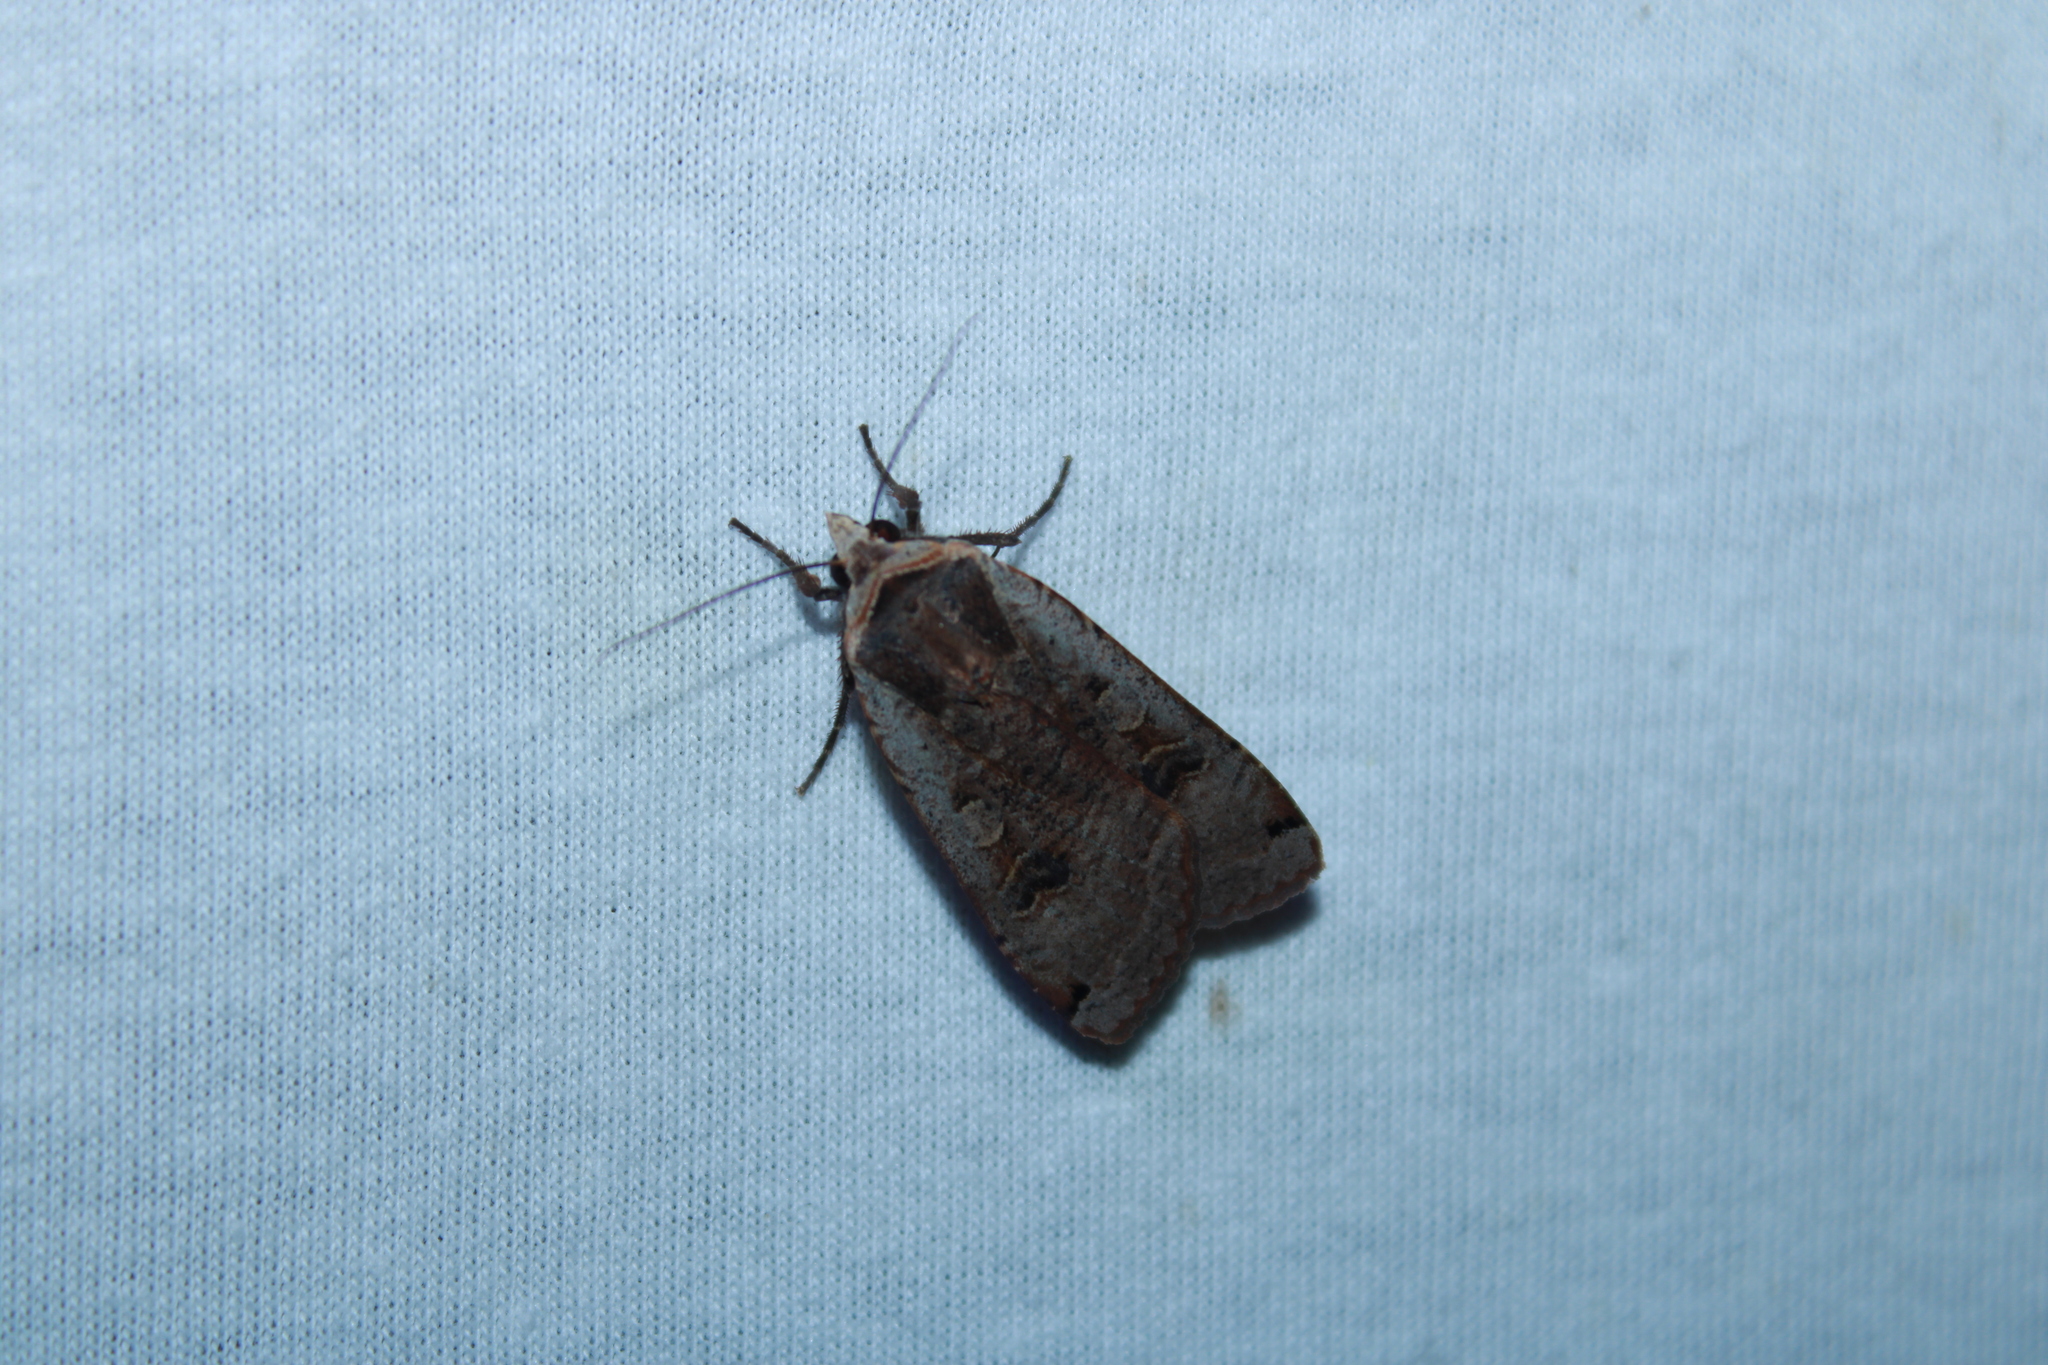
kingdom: Animalia
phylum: Arthropoda
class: Insecta
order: Lepidoptera
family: Noctuidae
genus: Noctua
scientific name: Noctua pronuba
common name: Large yellow underwing
